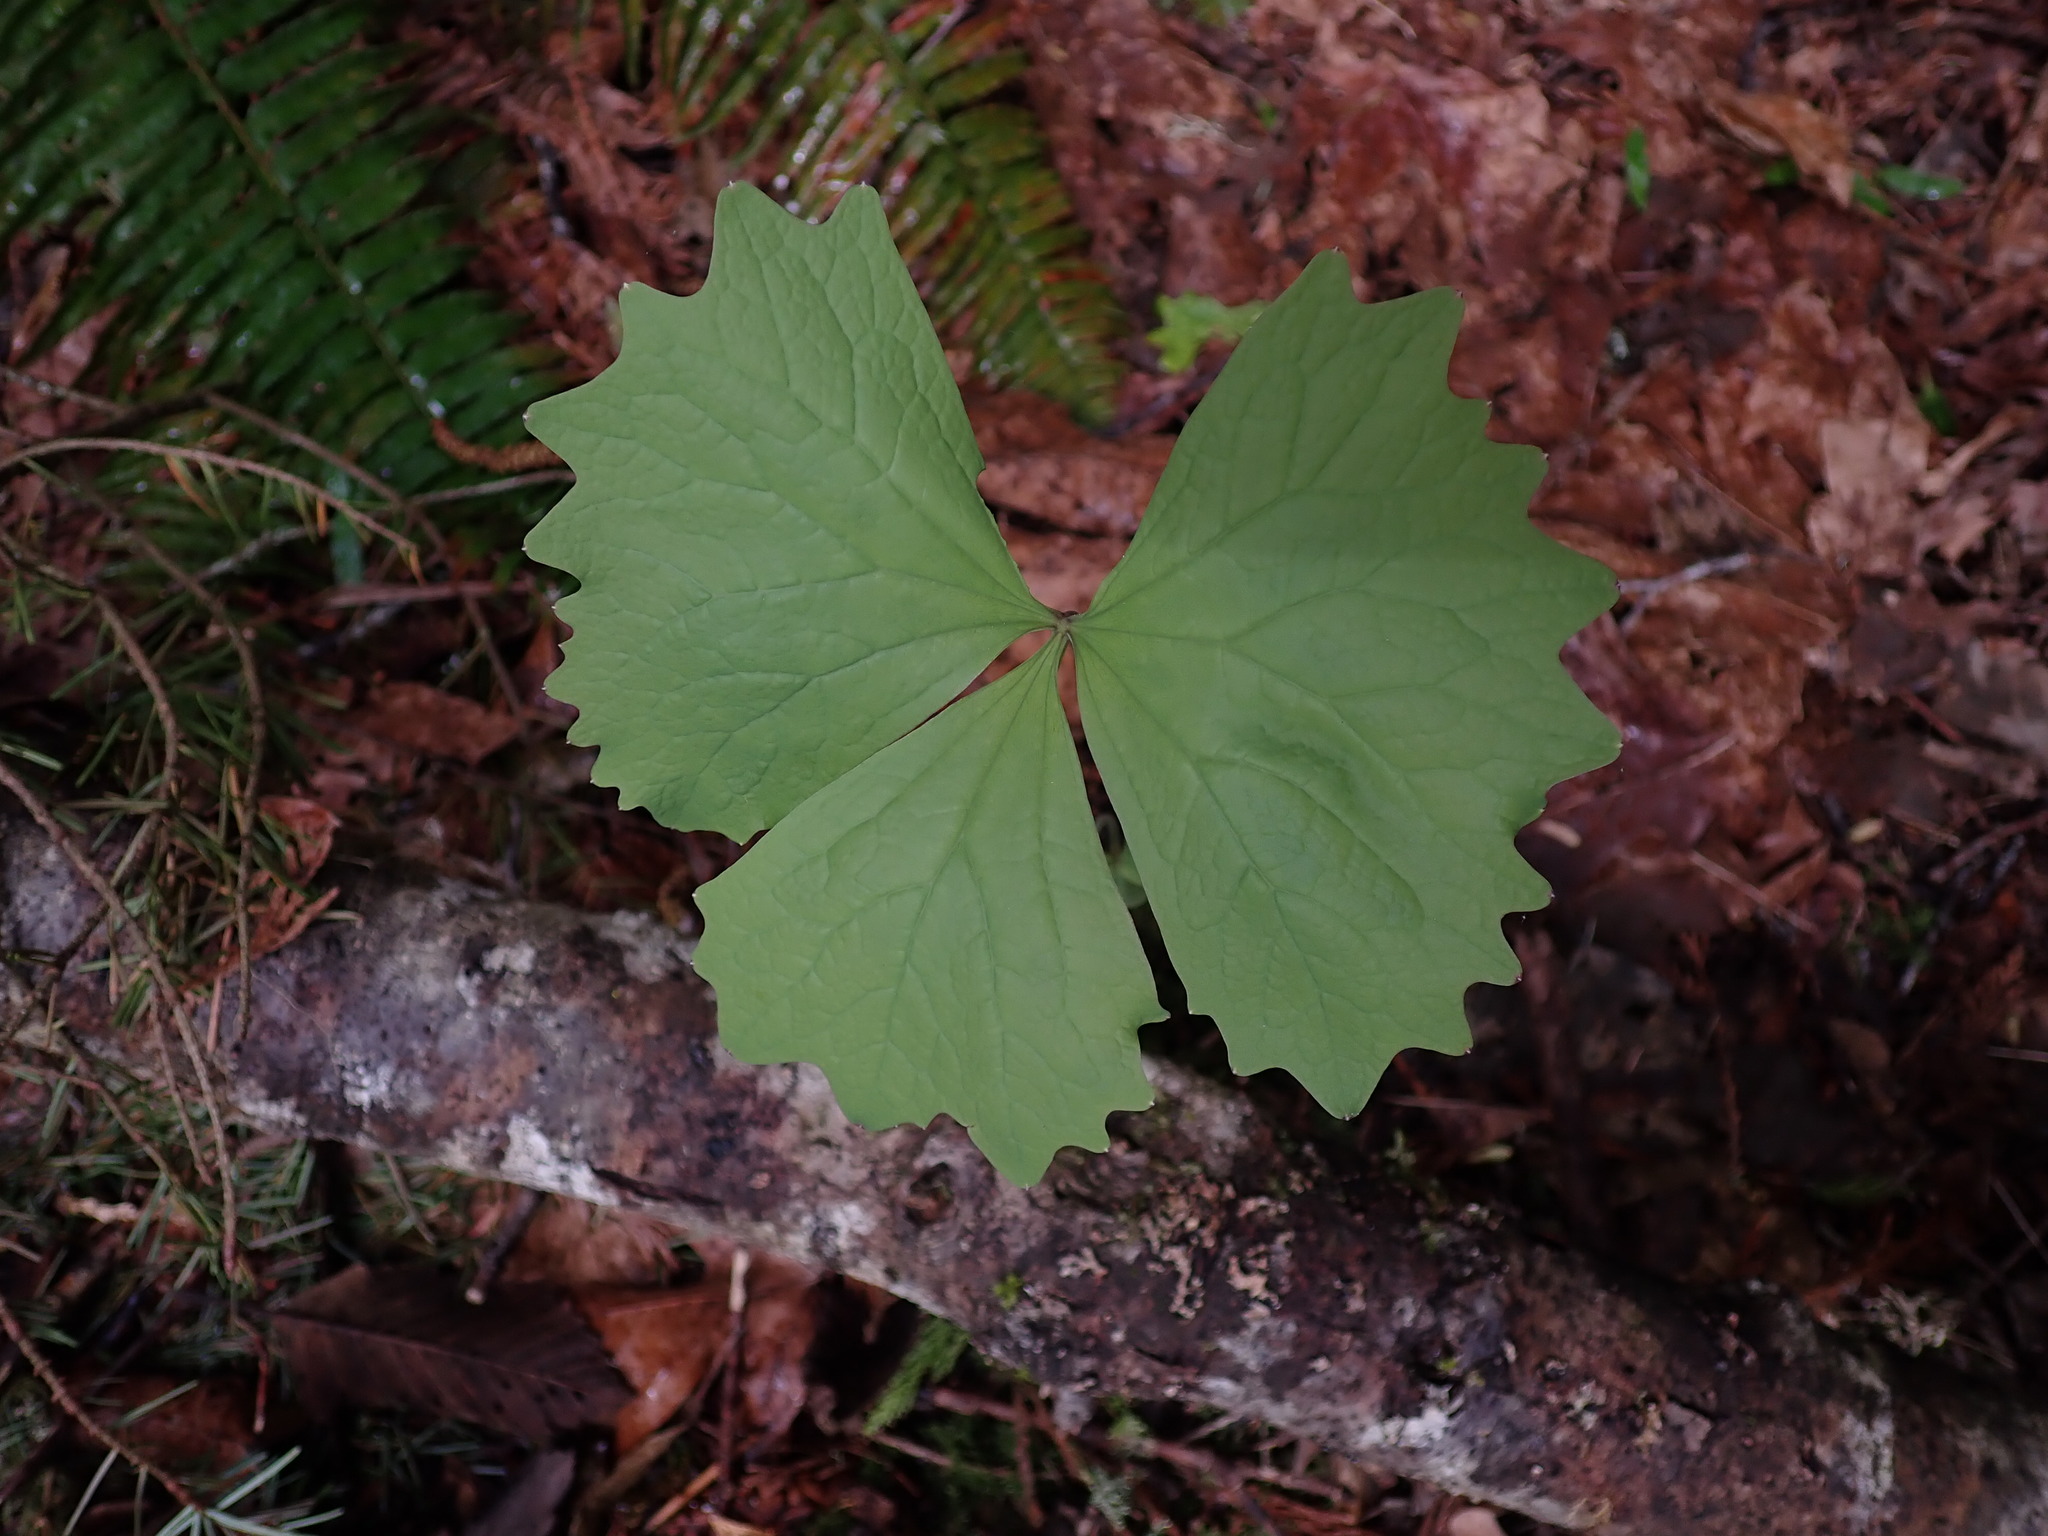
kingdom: Plantae
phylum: Tracheophyta
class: Magnoliopsida
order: Ranunculales
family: Berberidaceae
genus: Achlys
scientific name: Achlys triphylla
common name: Vanilla-leaf
